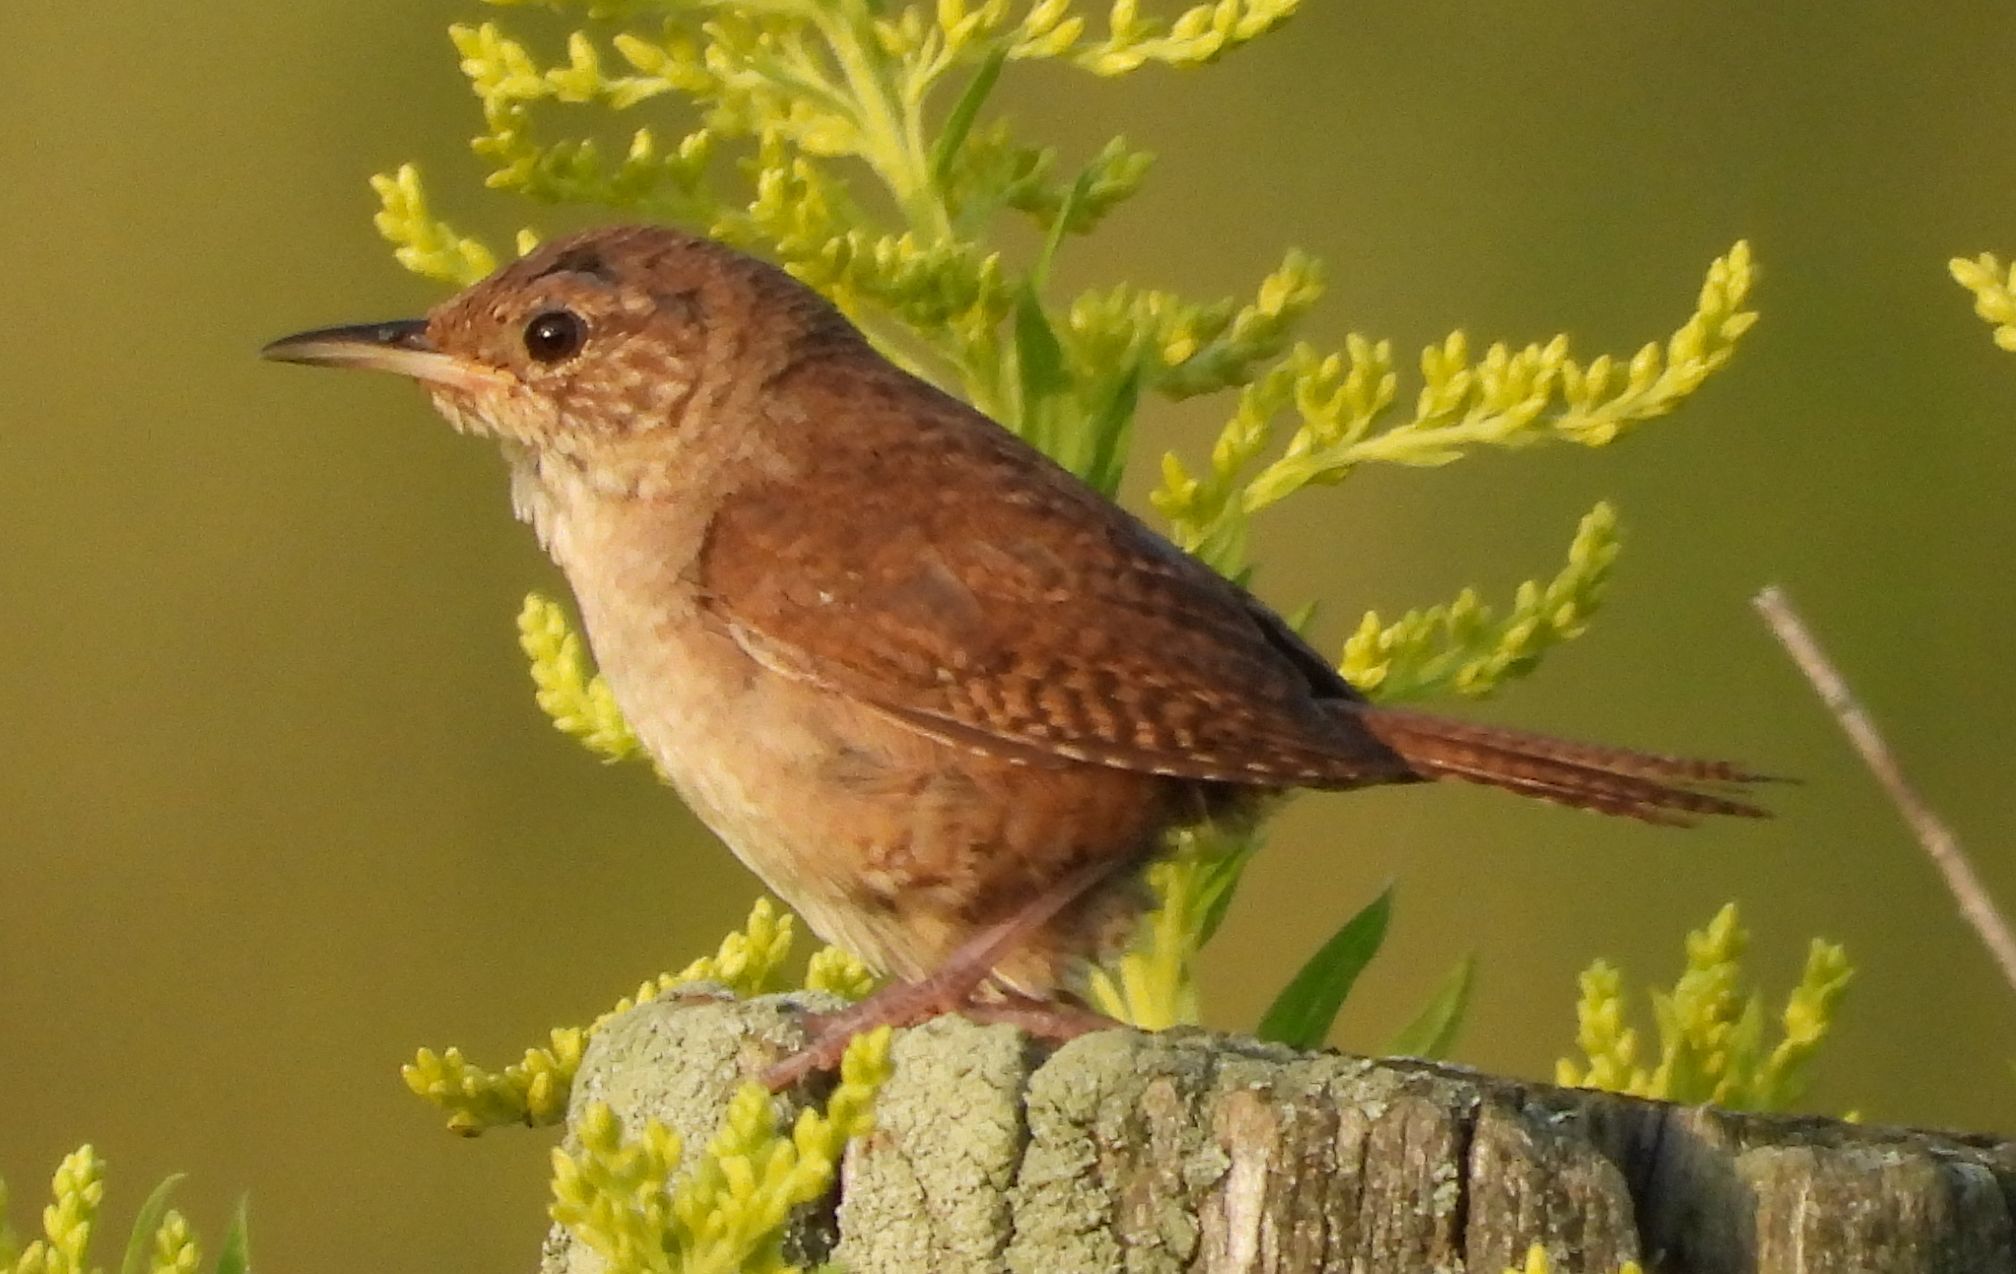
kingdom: Animalia
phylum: Chordata
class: Aves
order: Passeriformes
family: Troglodytidae
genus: Troglodytes
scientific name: Troglodytes aedon
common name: House wren
